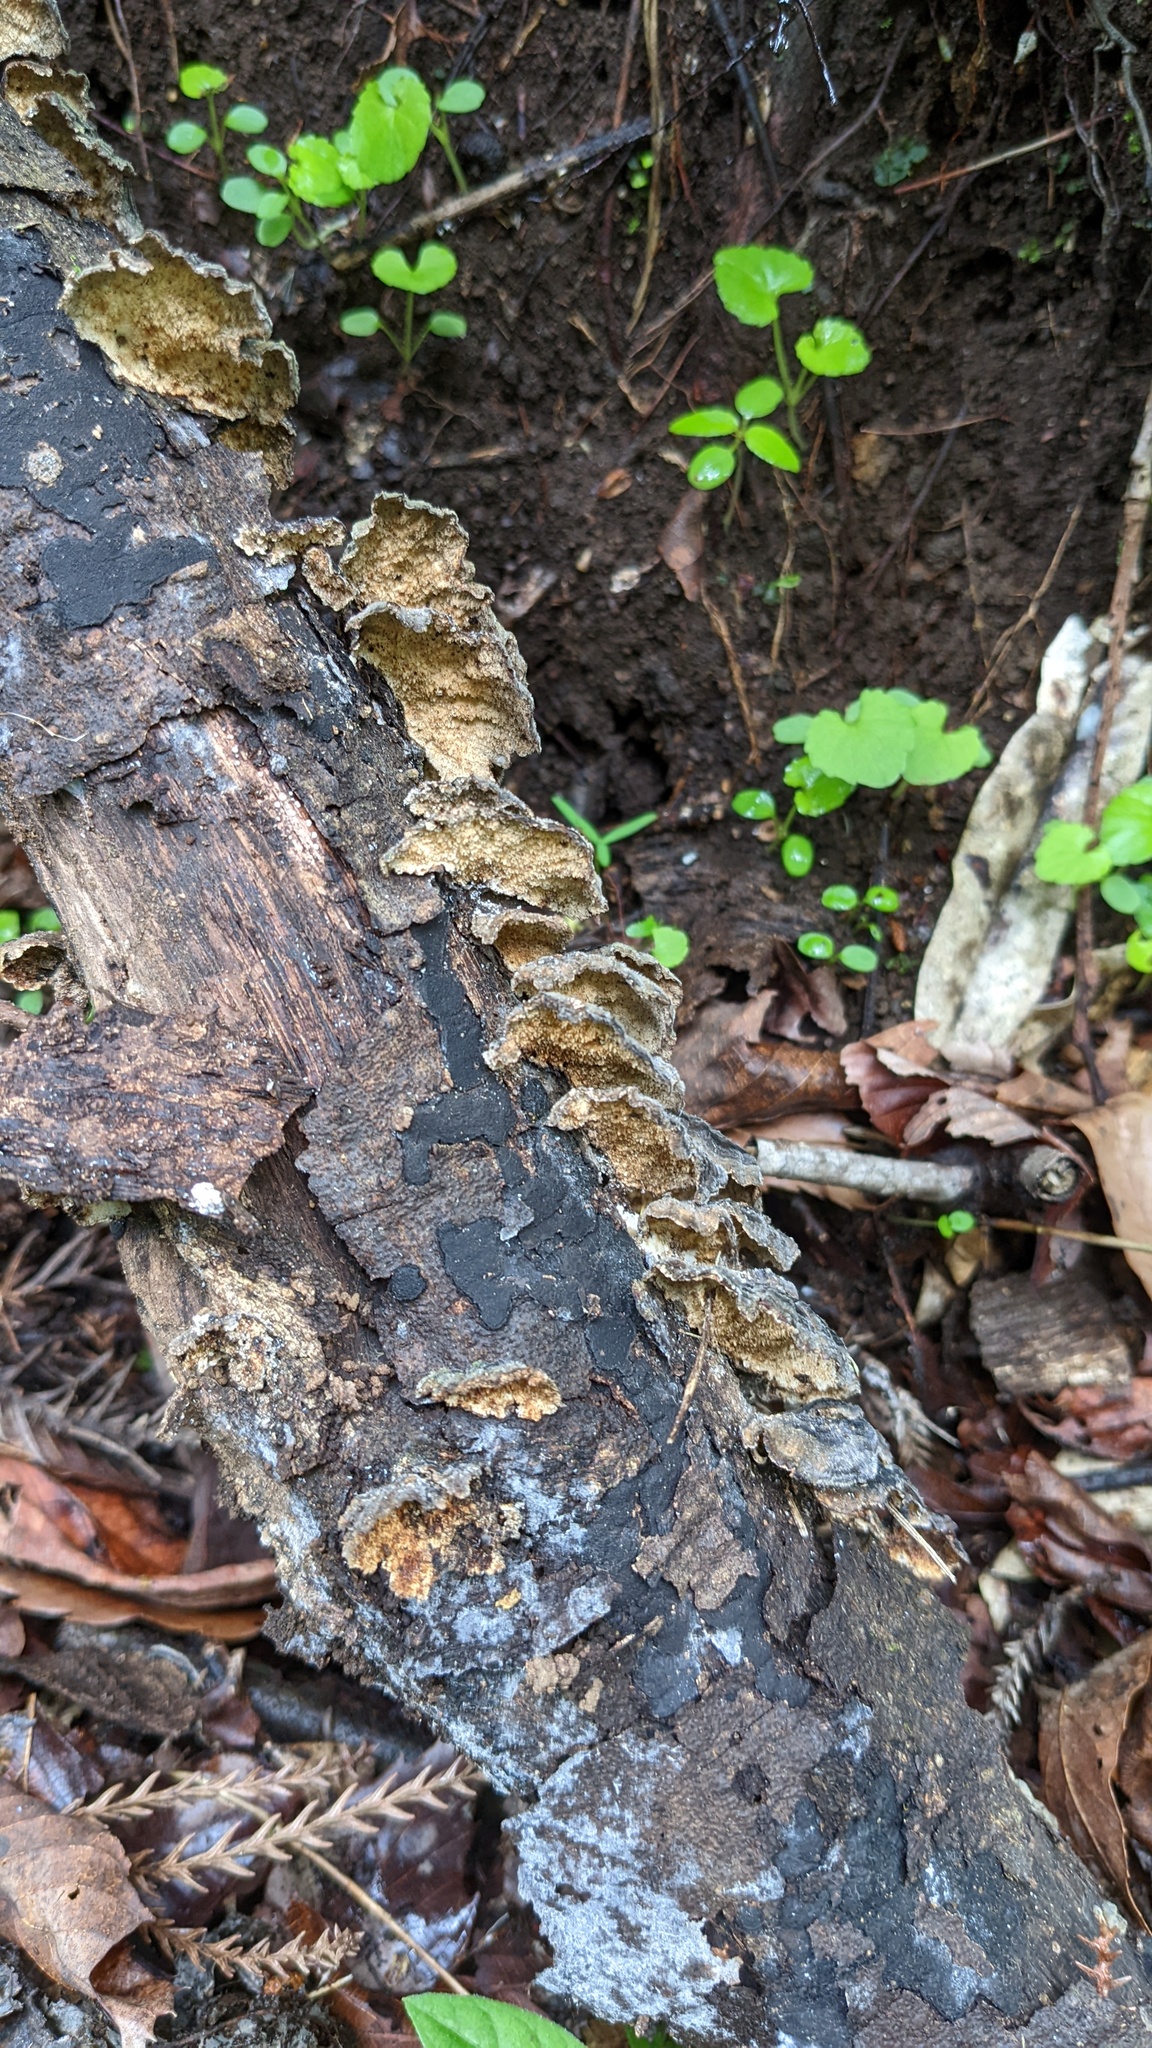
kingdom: Fungi
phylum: Basidiomycota
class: Agaricomycetes
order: Polyporales
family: Polyporaceae
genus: Trametes
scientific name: Trametes versicolor
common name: Turkeytail
